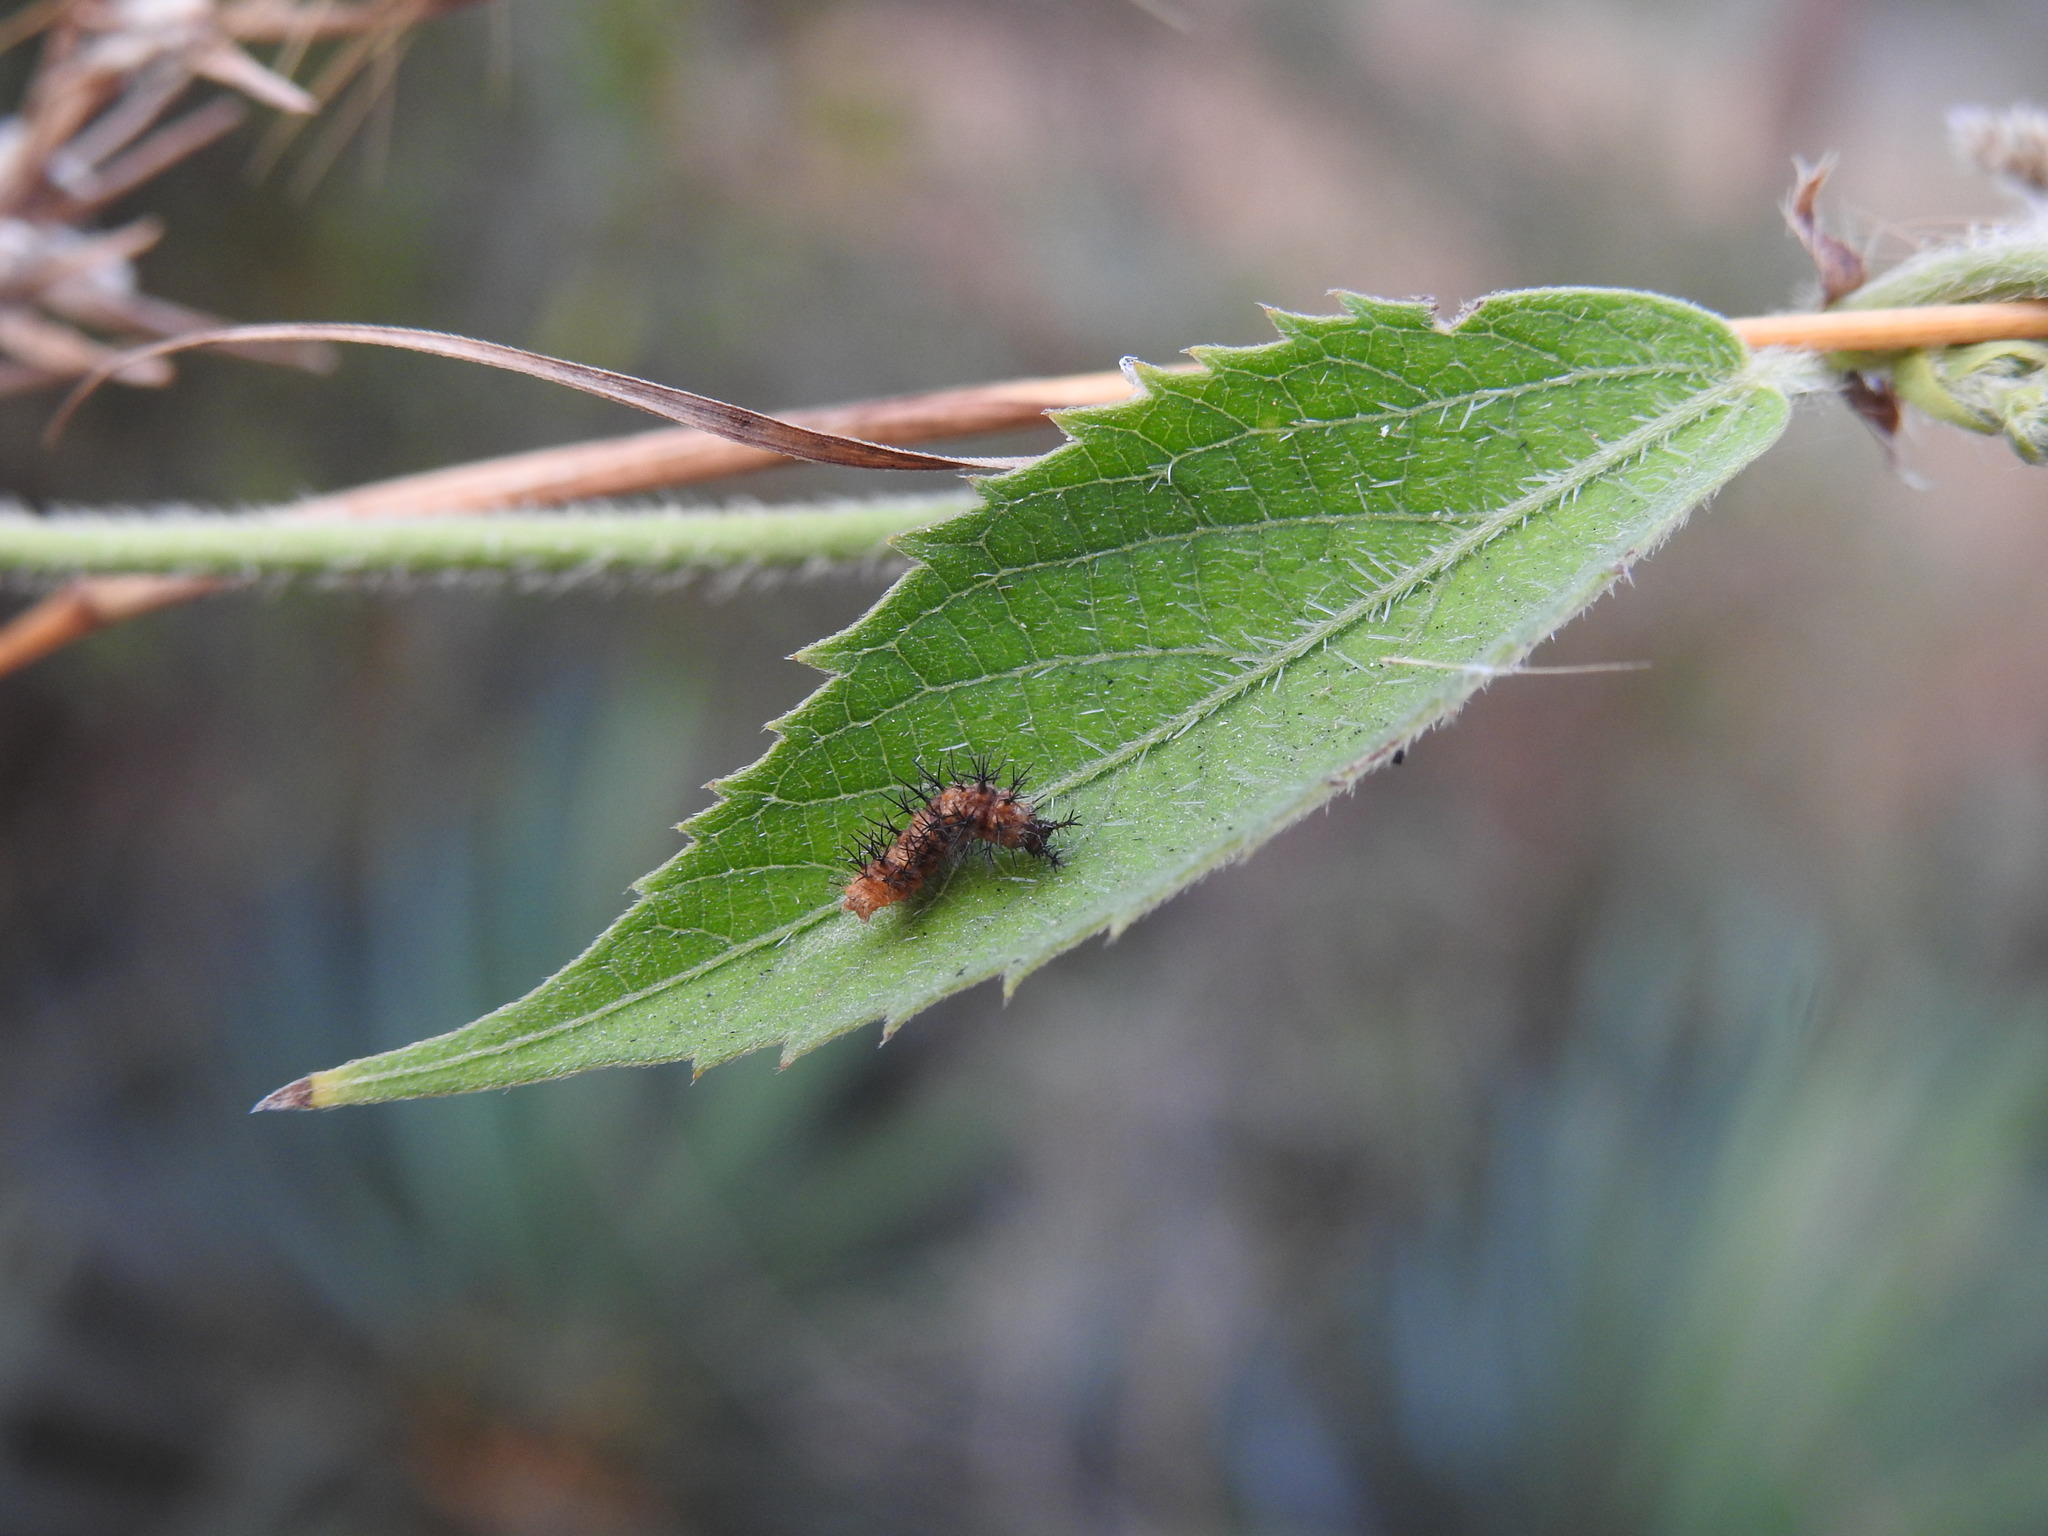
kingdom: Animalia
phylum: Arthropoda
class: Insecta
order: Lepidoptera
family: Nymphalidae
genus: Ariadne
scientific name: Ariadne ariadne
